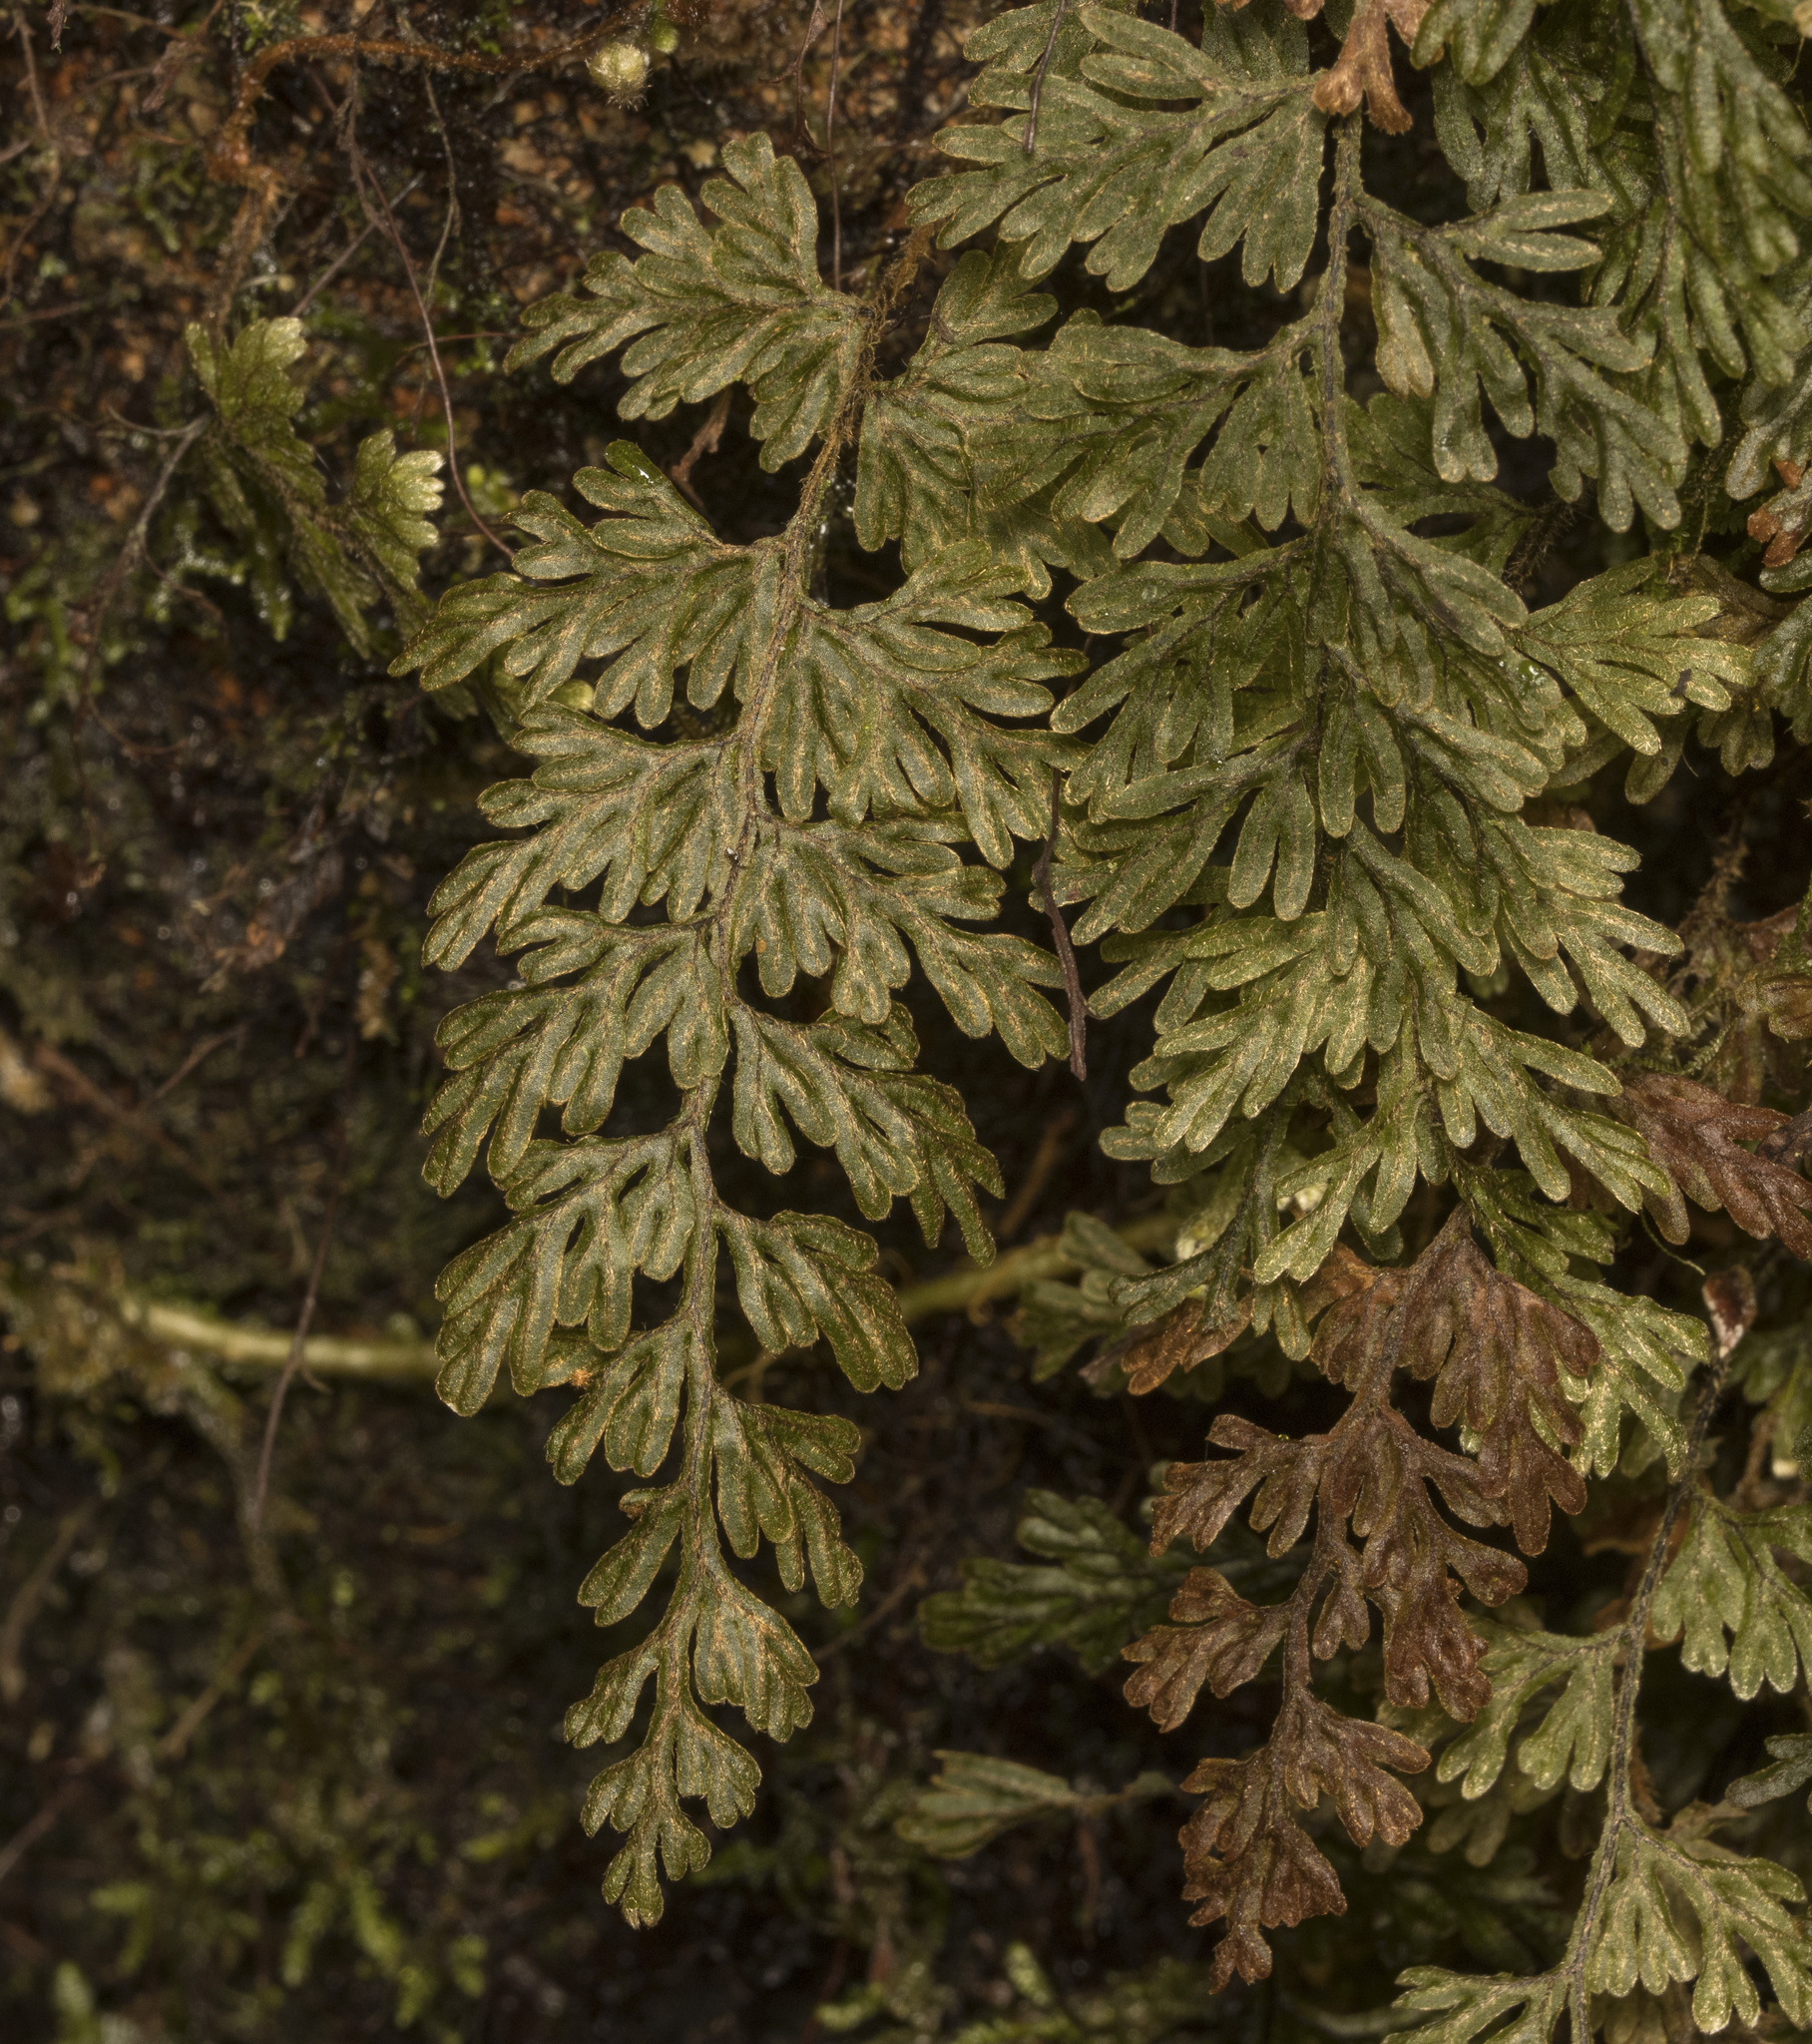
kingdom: Plantae
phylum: Tracheophyta
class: Polypodiopsida
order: Hymenophyllales
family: Hymenophyllaceae
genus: Hymenophyllum
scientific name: Hymenophyllum ferrugineum
